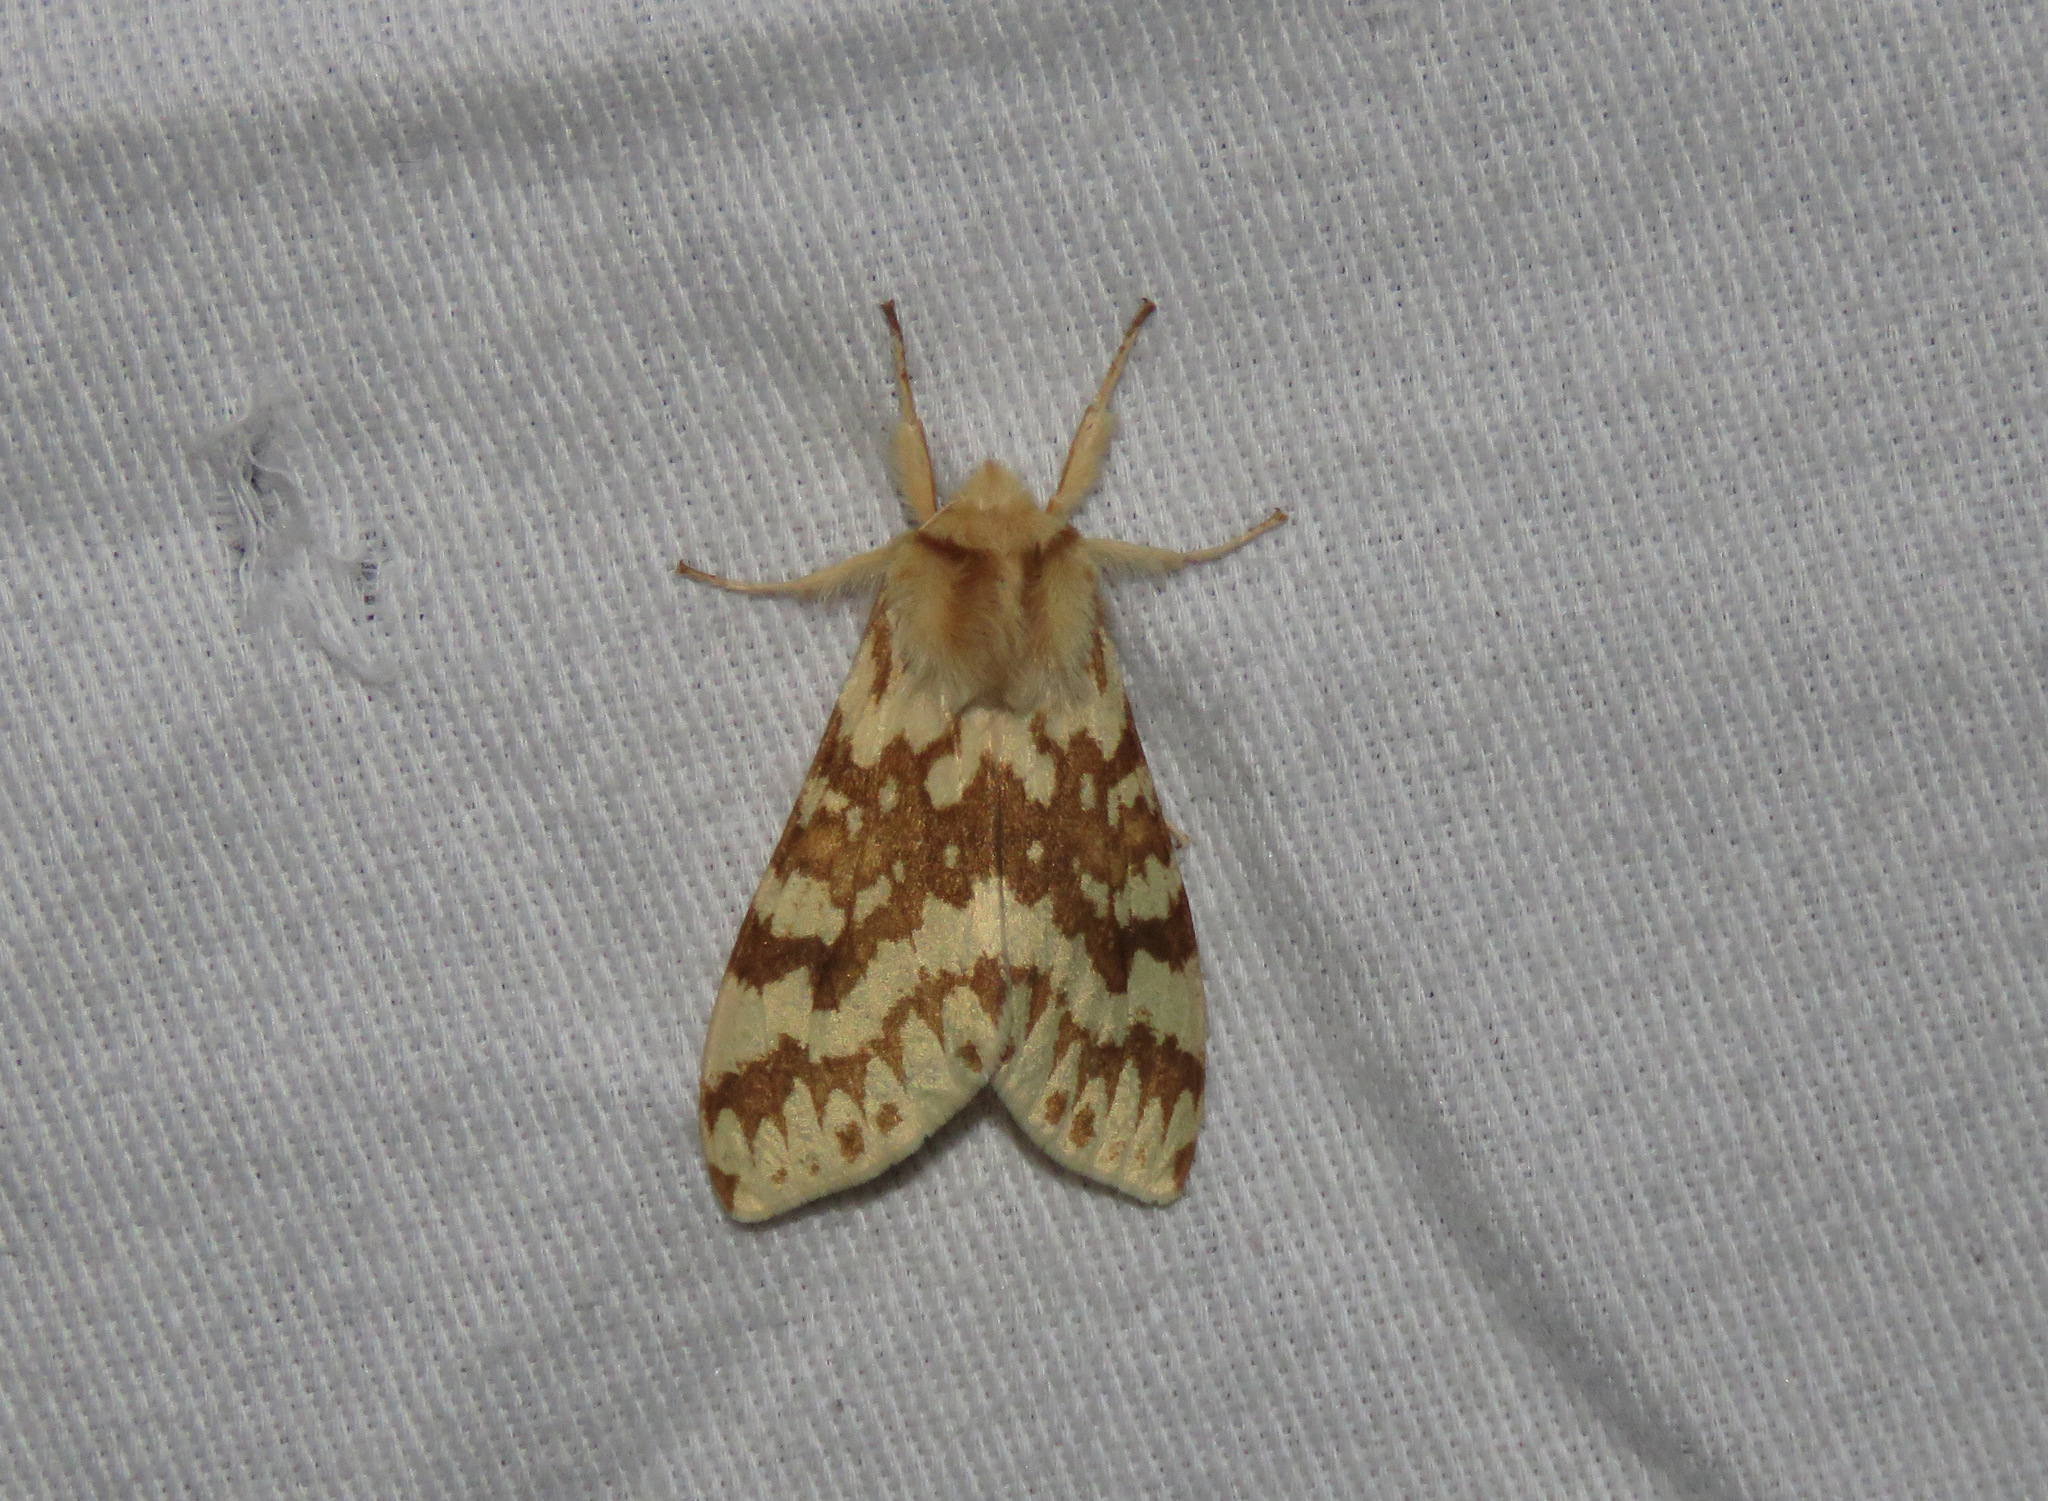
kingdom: Animalia
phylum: Arthropoda
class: Insecta
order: Lepidoptera
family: Erebidae
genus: Lophocampa
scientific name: Lophocampa maculata
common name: Spotted tussock moth
